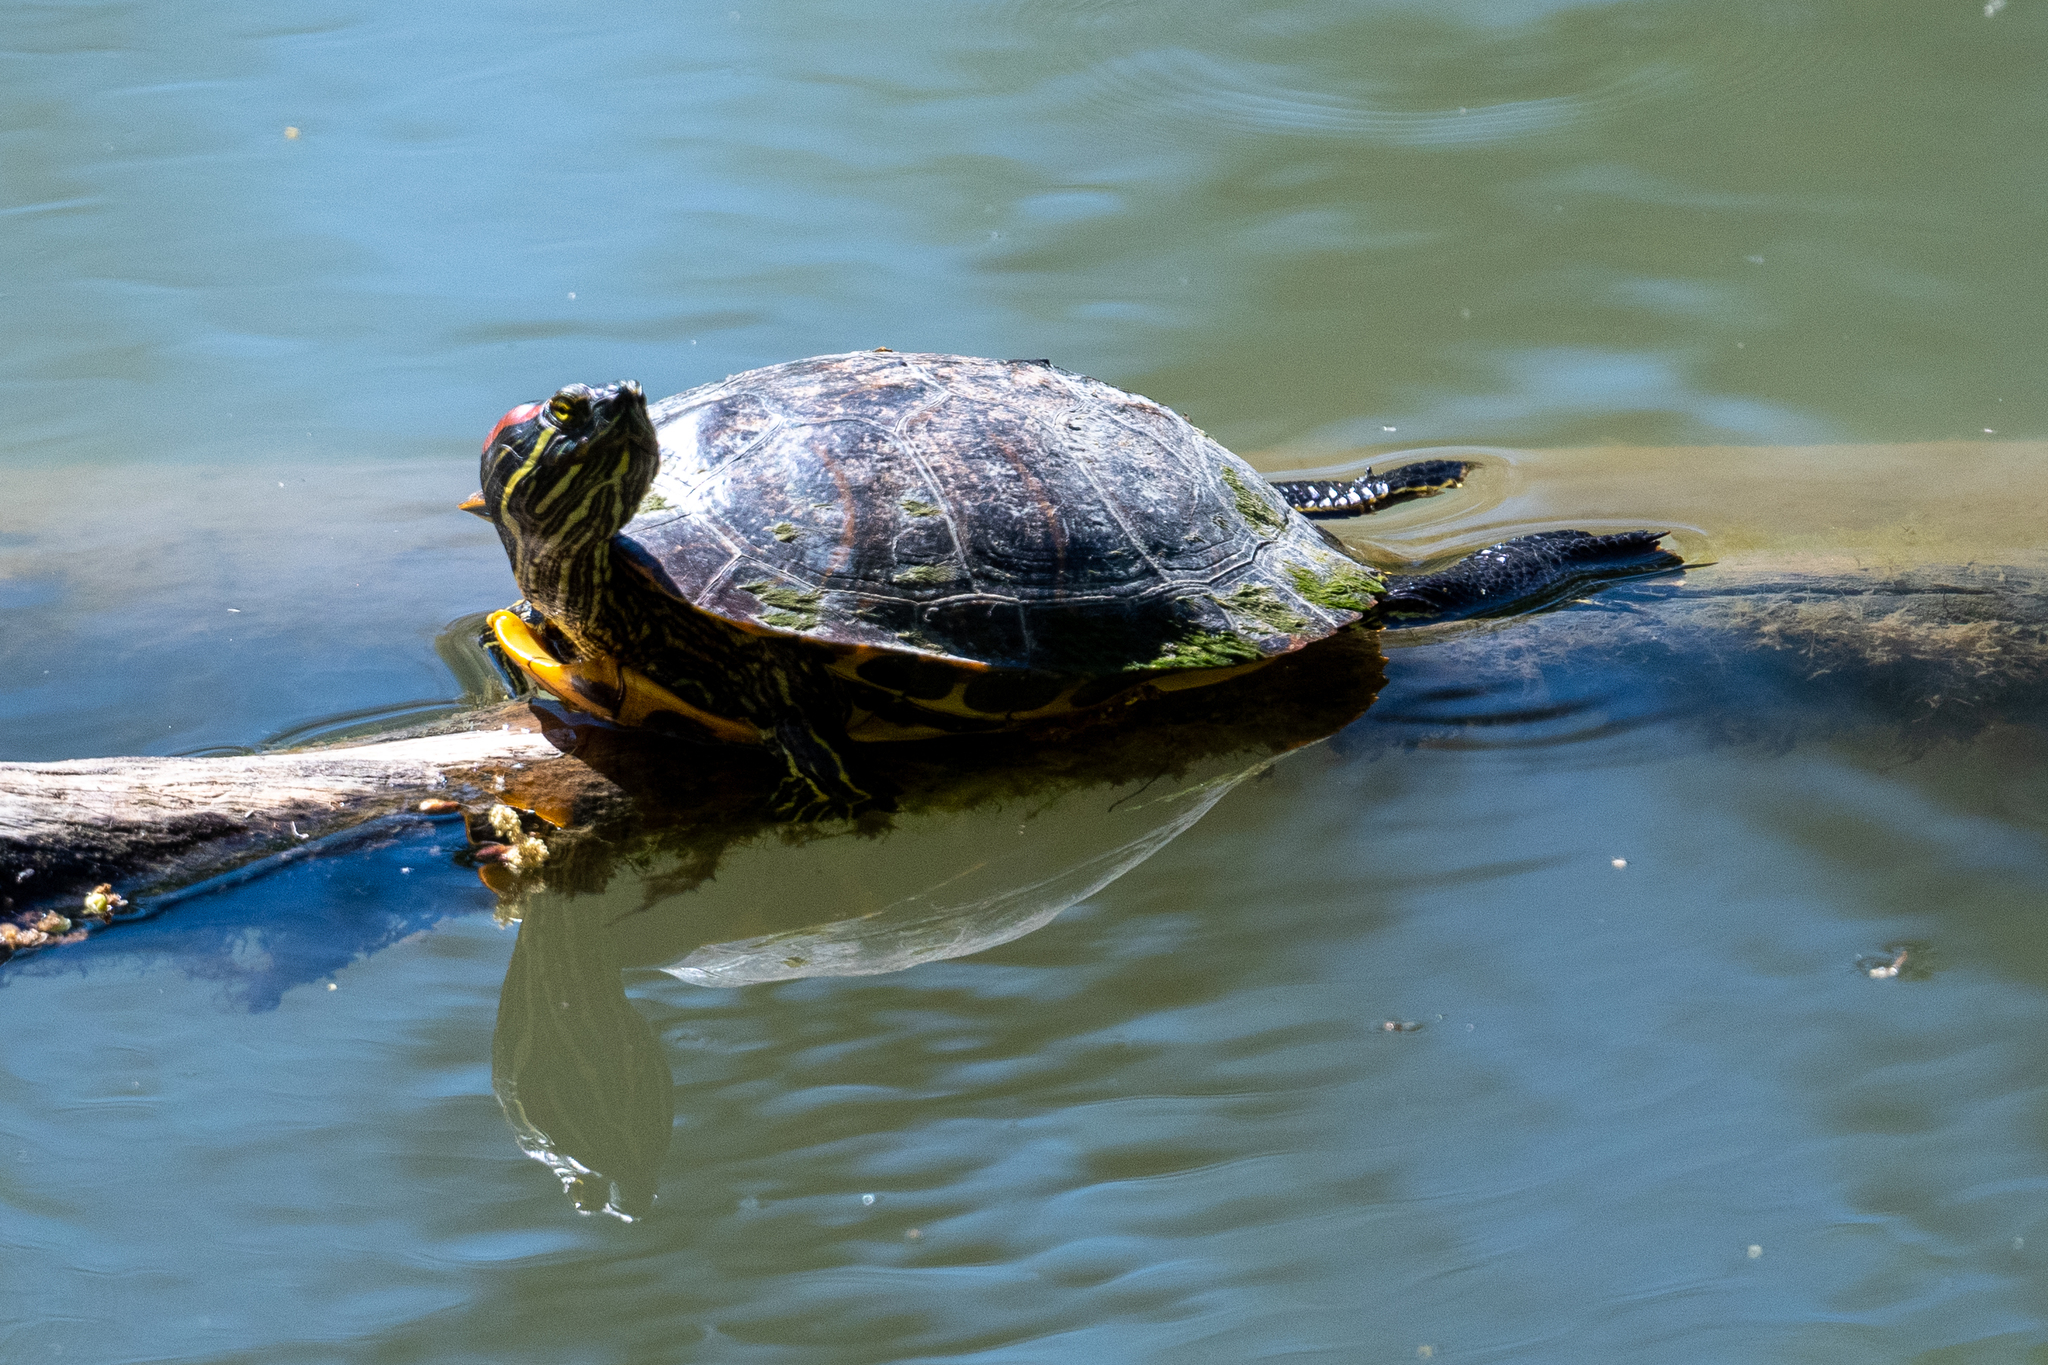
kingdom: Animalia
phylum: Chordata
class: Testudines
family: Emydidae
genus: Trachemys
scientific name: Trachemys scripta
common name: Slider
